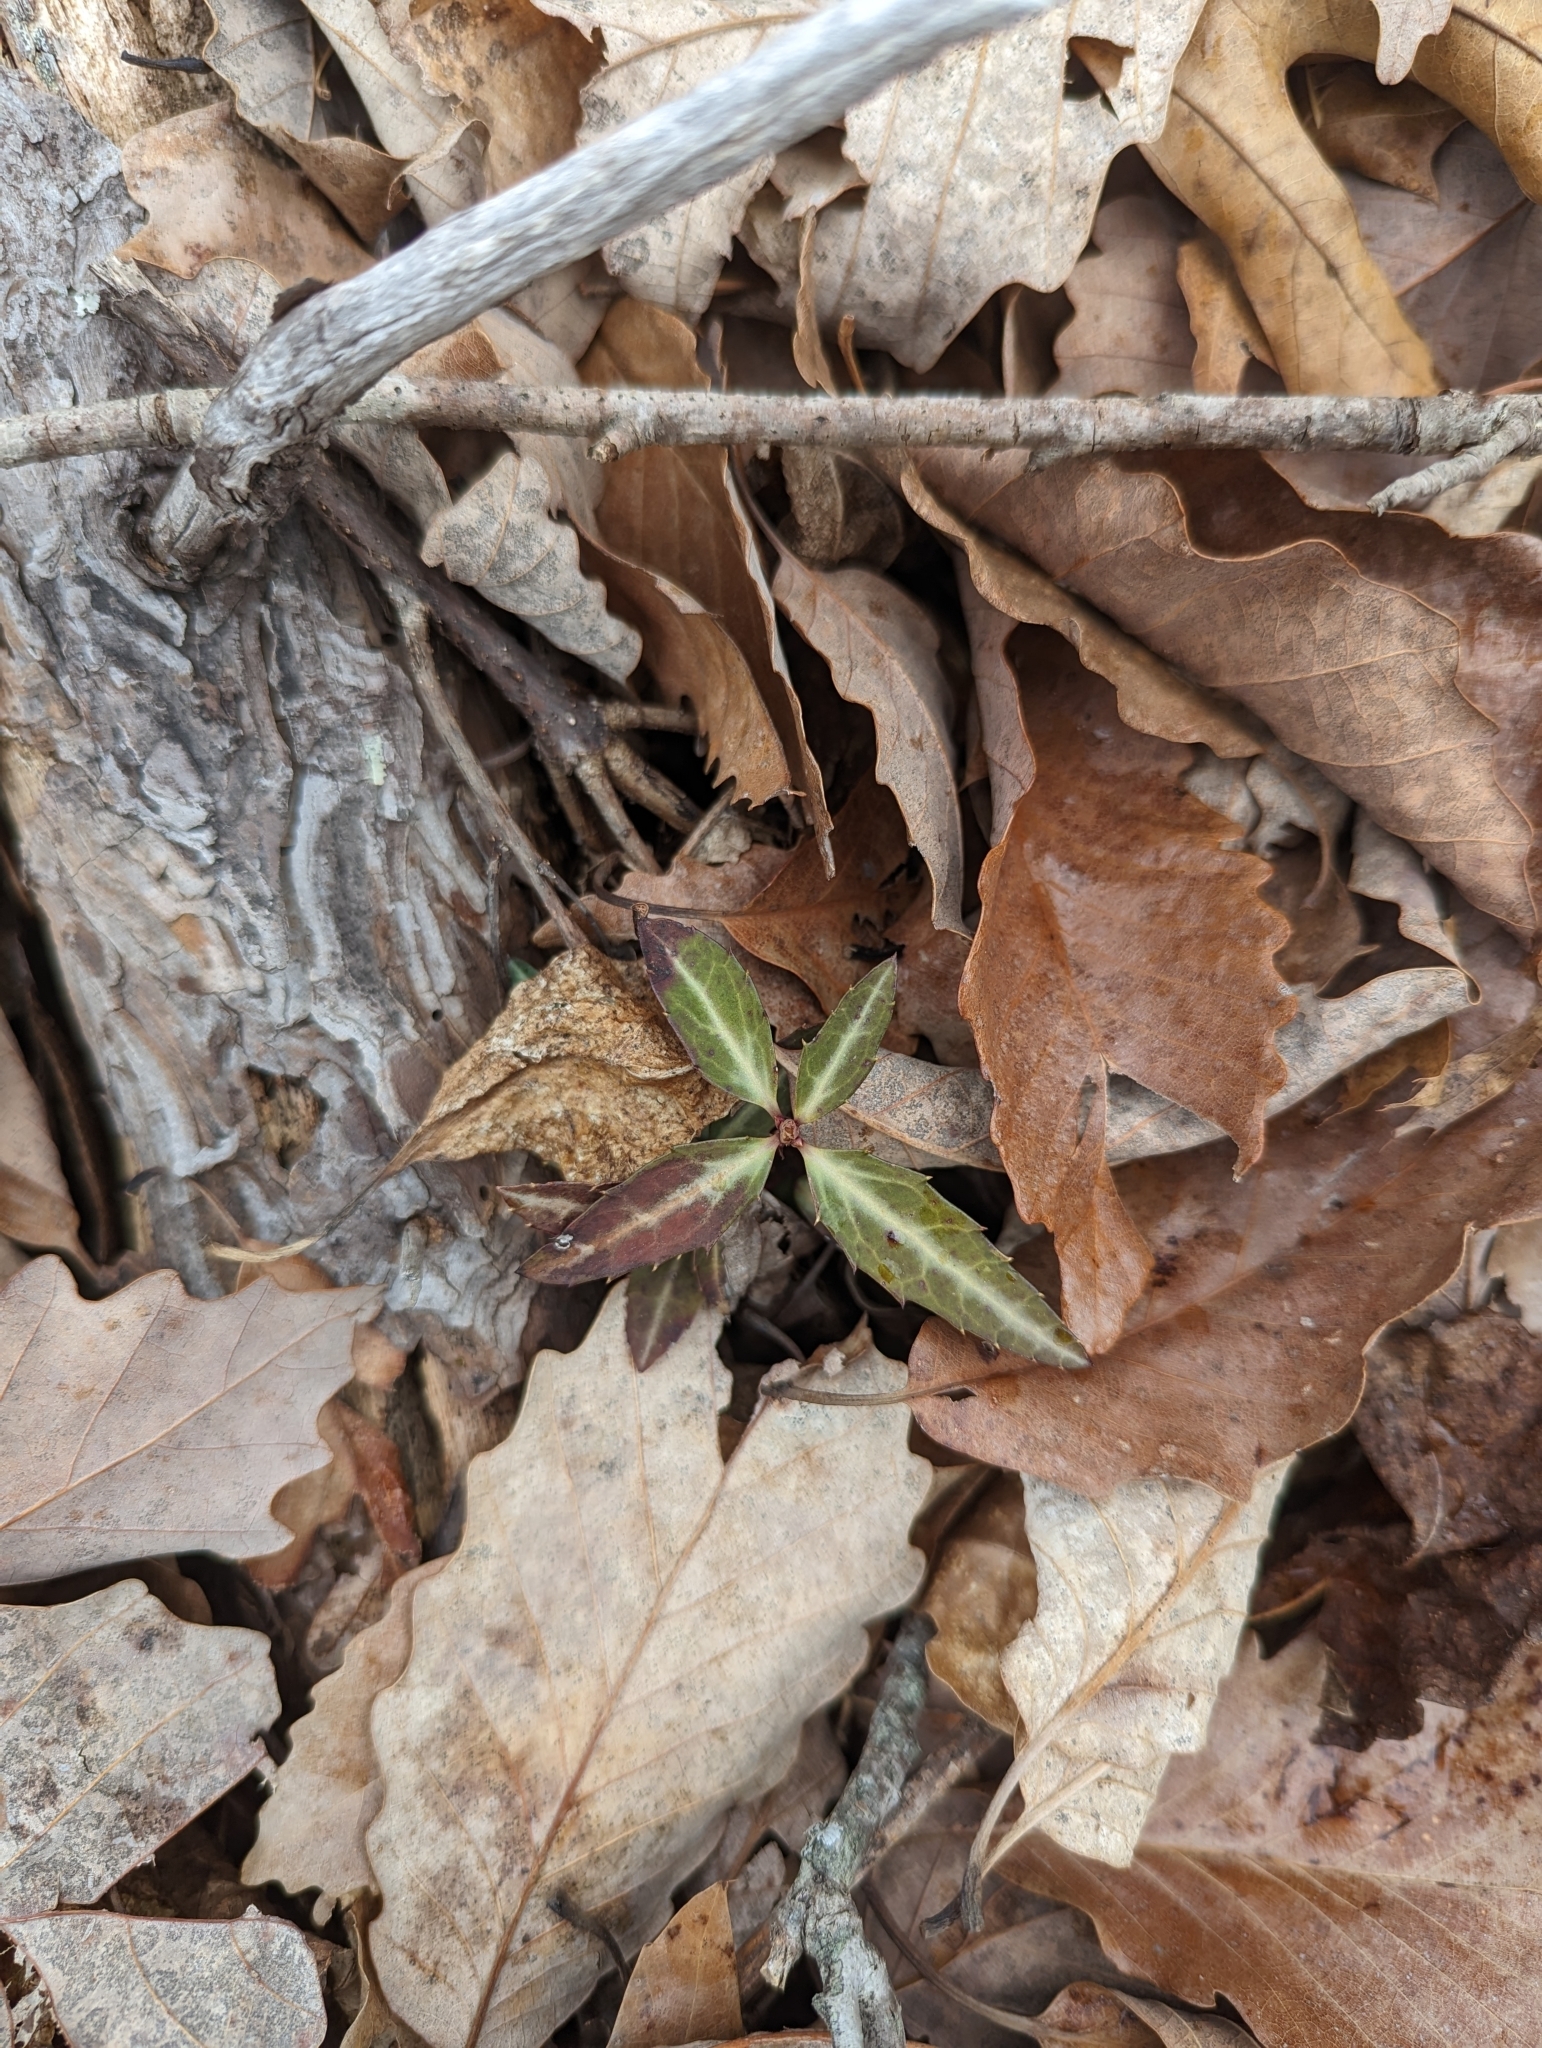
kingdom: Plantae
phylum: Tracheophyta
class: Magnoliopsida
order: Ericales
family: Ericaceae
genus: Chimaphila
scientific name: Chimaphila maculata
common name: Spotted pipsissewa
